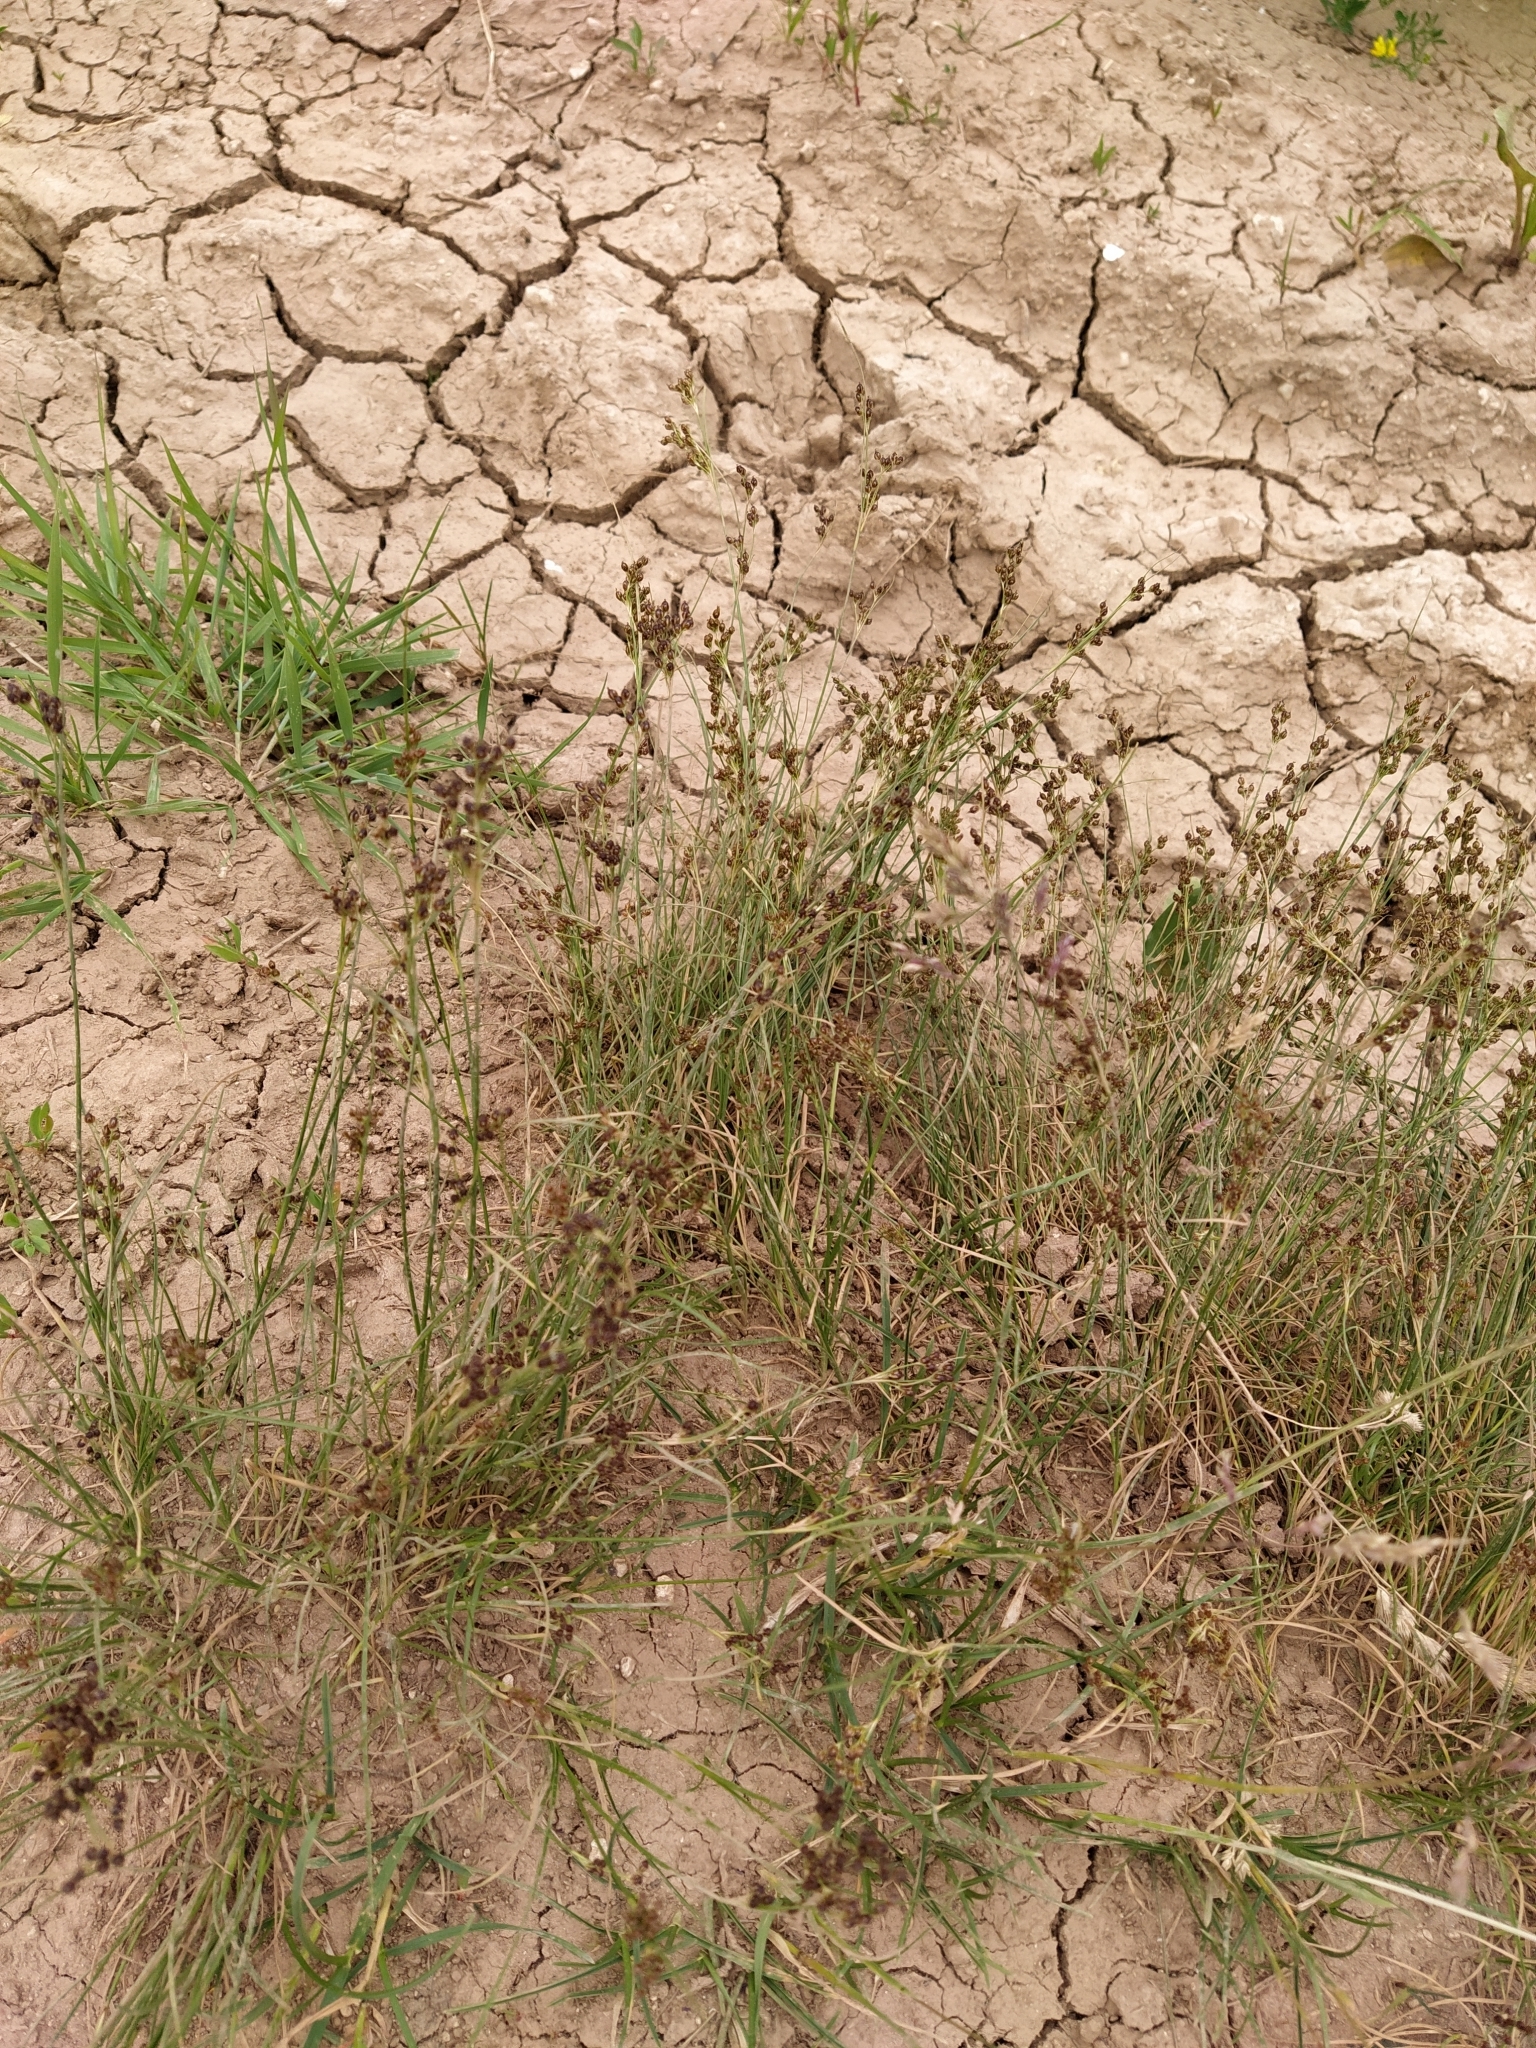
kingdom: Plantae
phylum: Tracheophyta
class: Liliopsida
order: Poales
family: Juncaceae
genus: Juncus
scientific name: Juncus compressus
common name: Round-fruited rush
